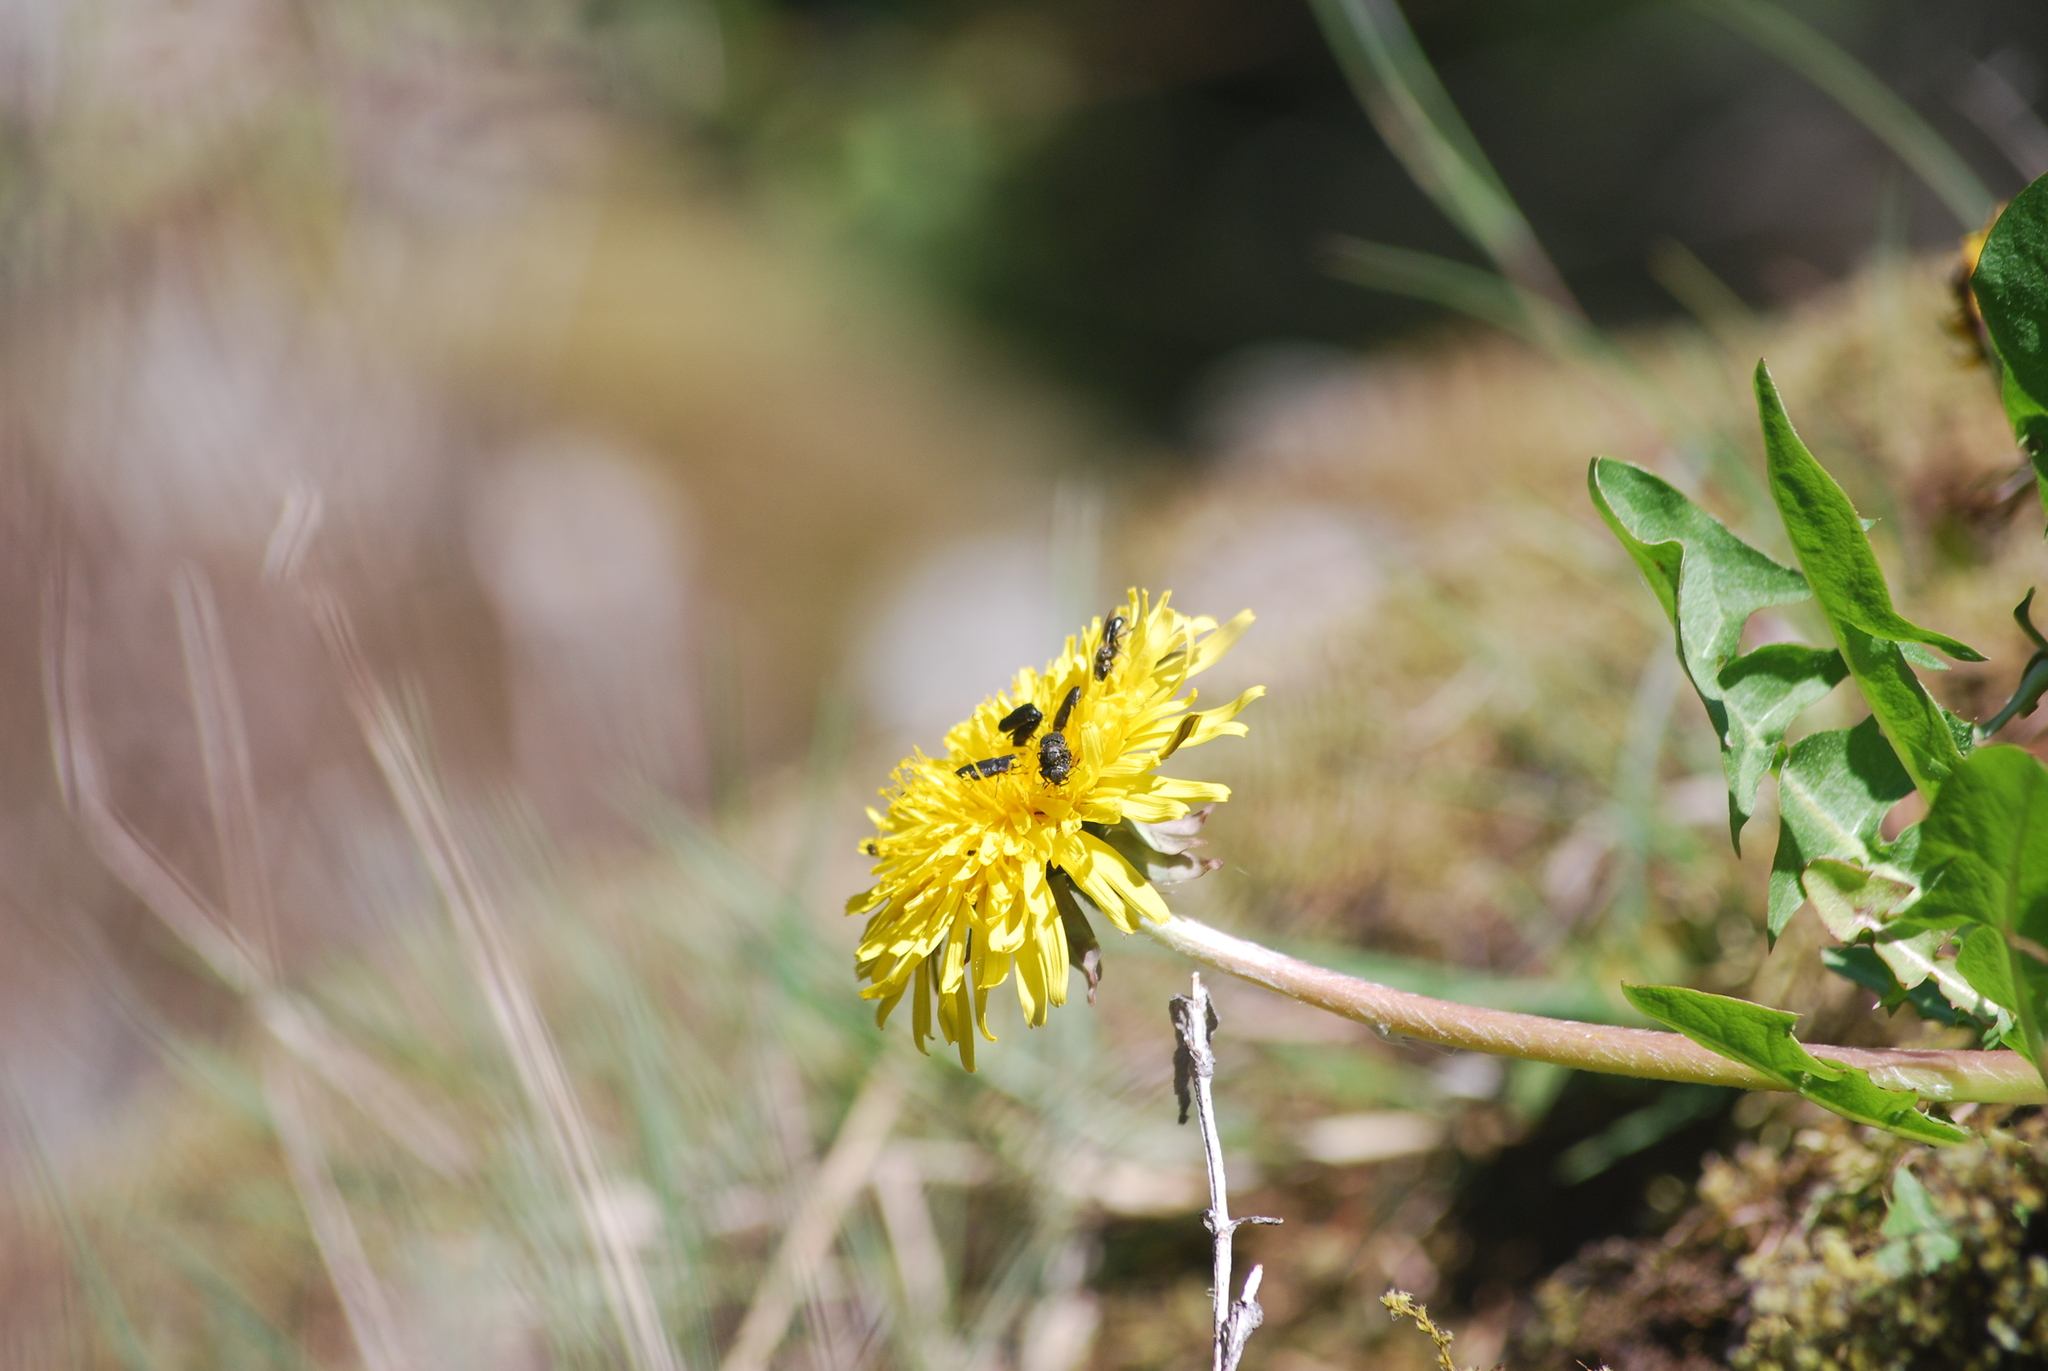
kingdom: Plantae
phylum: Tracheophyta
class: Magnoliopsida
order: Asterales
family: Asteraceae
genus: Taraxacum
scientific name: Taraxacum officinale
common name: Common dandelion
